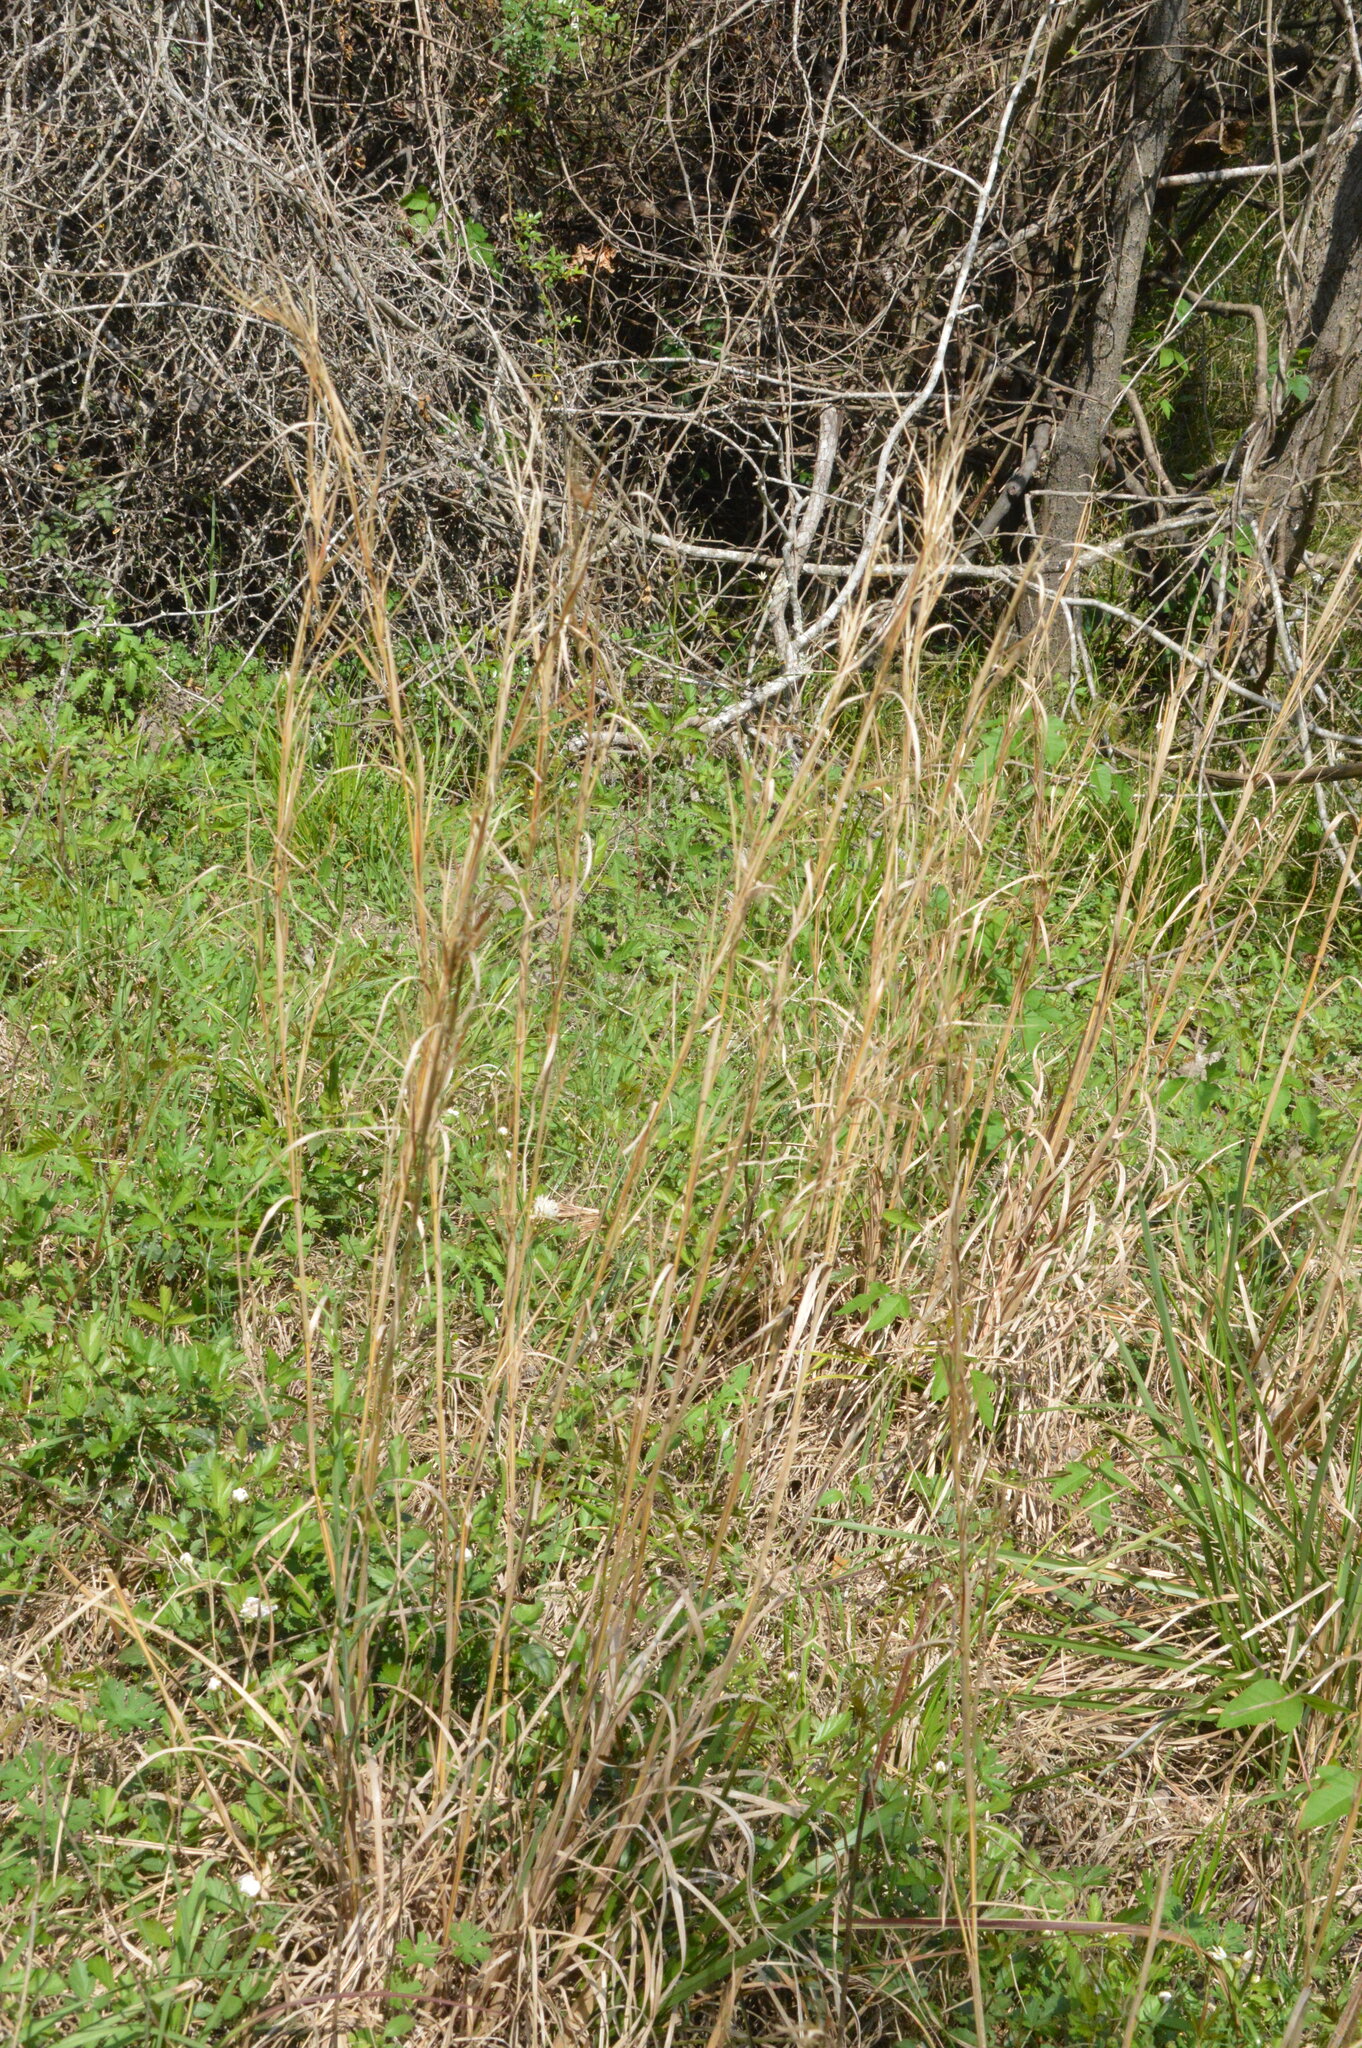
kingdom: Plantae
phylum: Tracheophyta
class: Liliopsida
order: Poales
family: Poaceae
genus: Andropogon
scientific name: Andropogon virginicus
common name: Broomsedge bluestem
